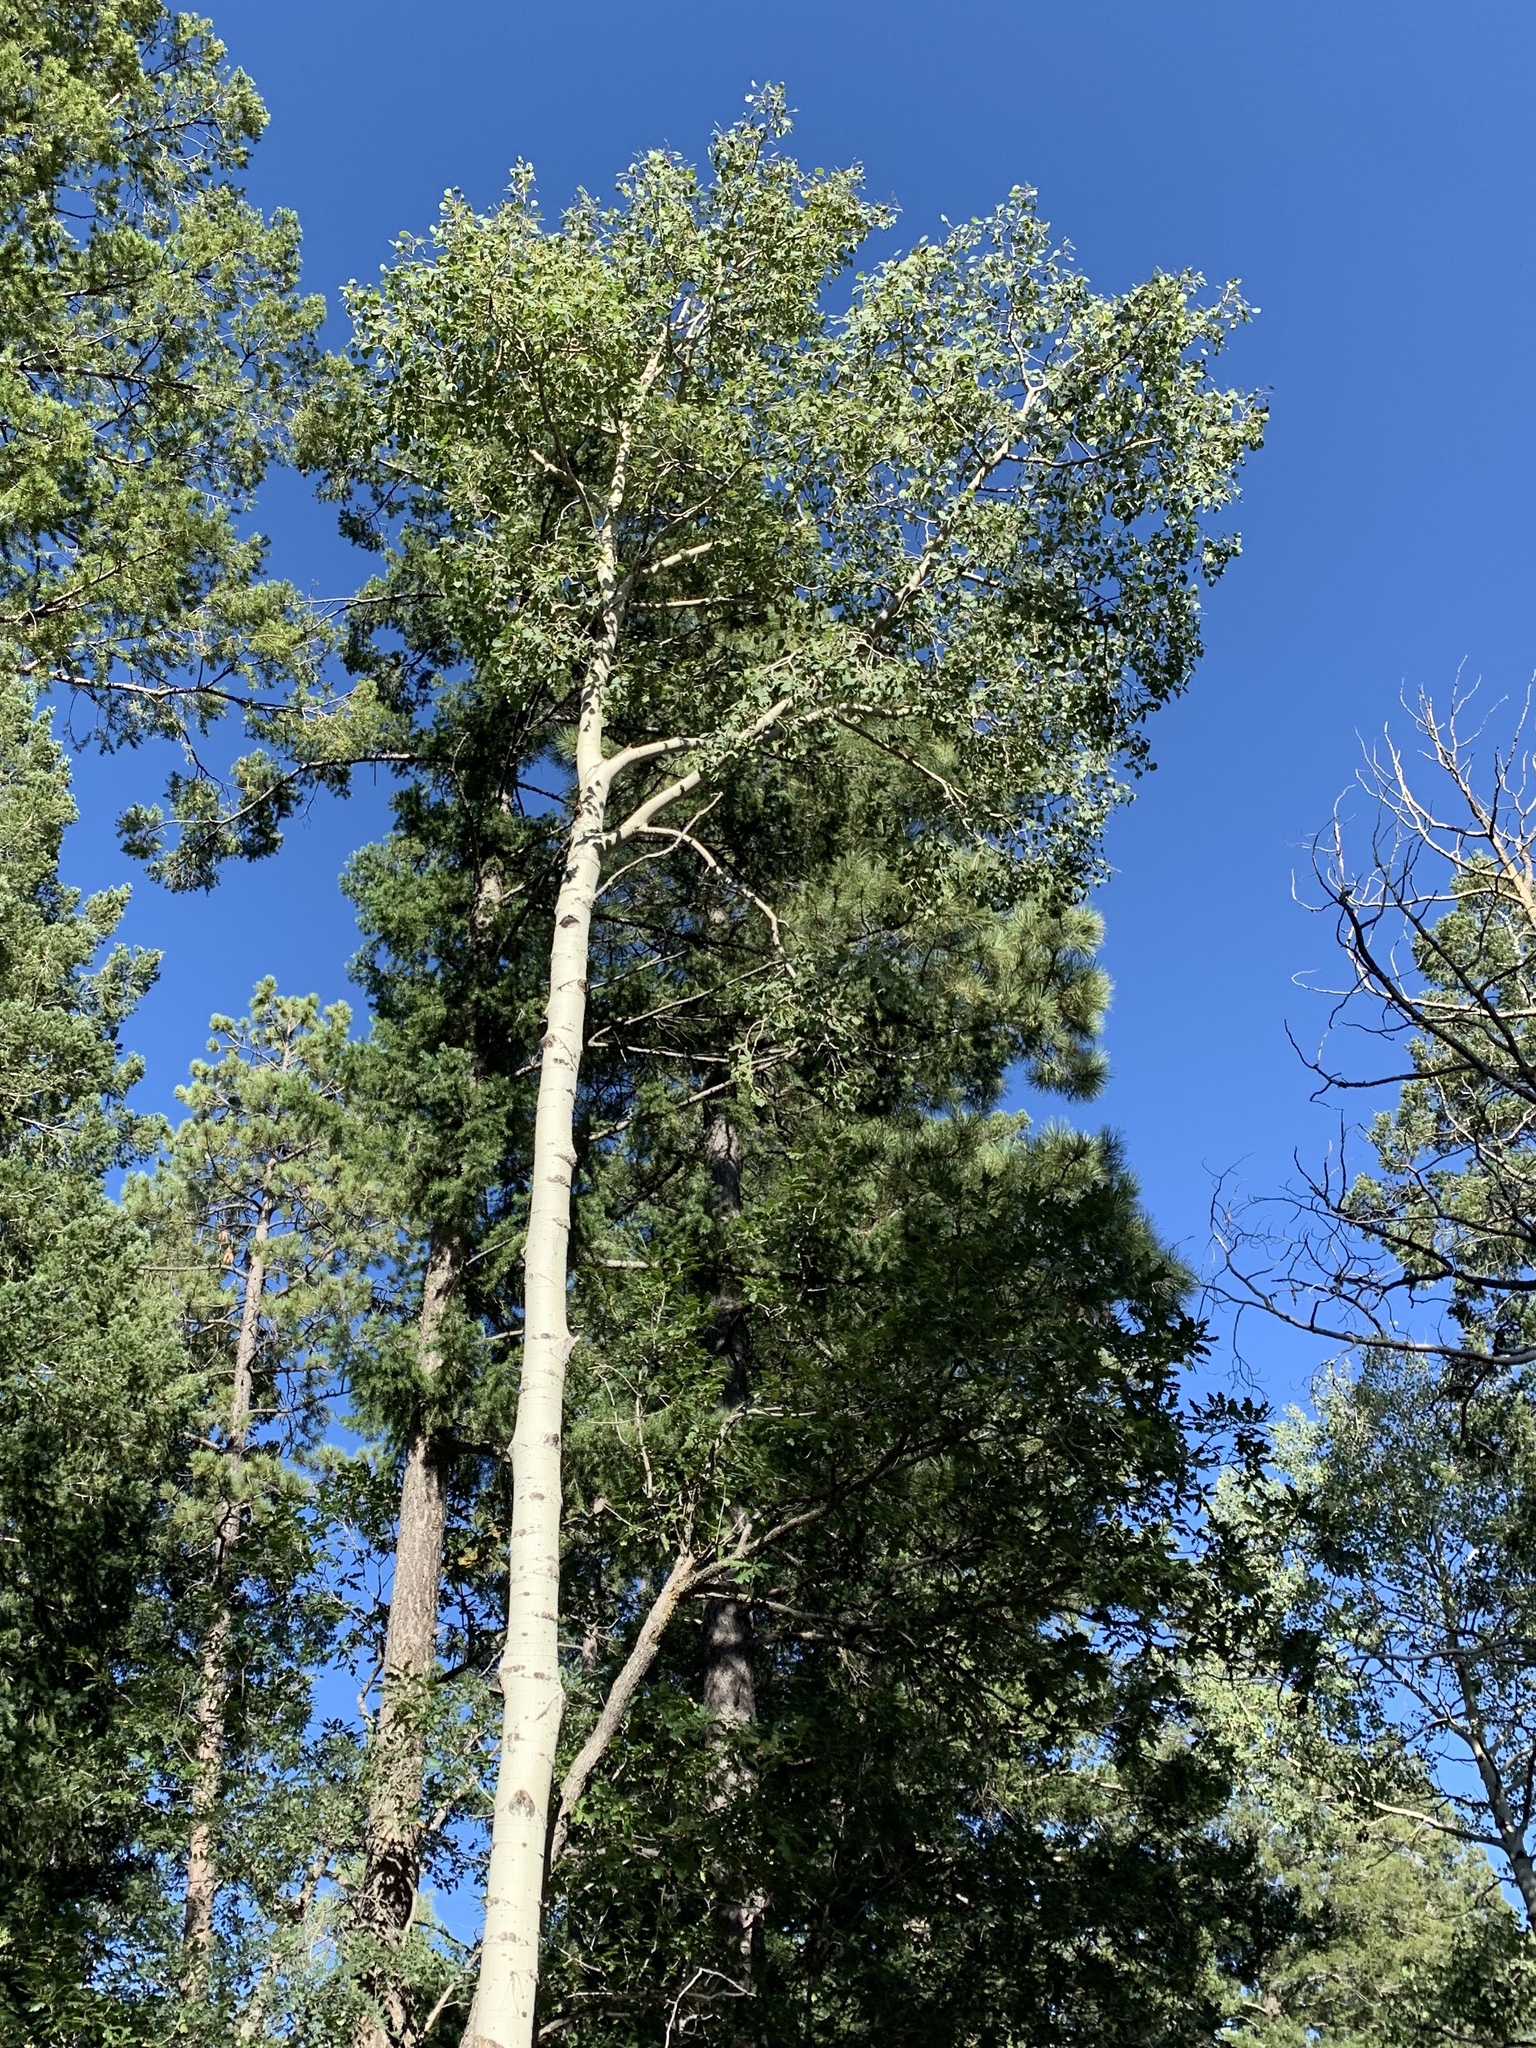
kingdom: Plantae
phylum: Tracheophyta
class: Magnoliopsida
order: Malpighiales
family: Salicaceae
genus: Populus
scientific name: Populus tremuloides
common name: Quaking aspen
